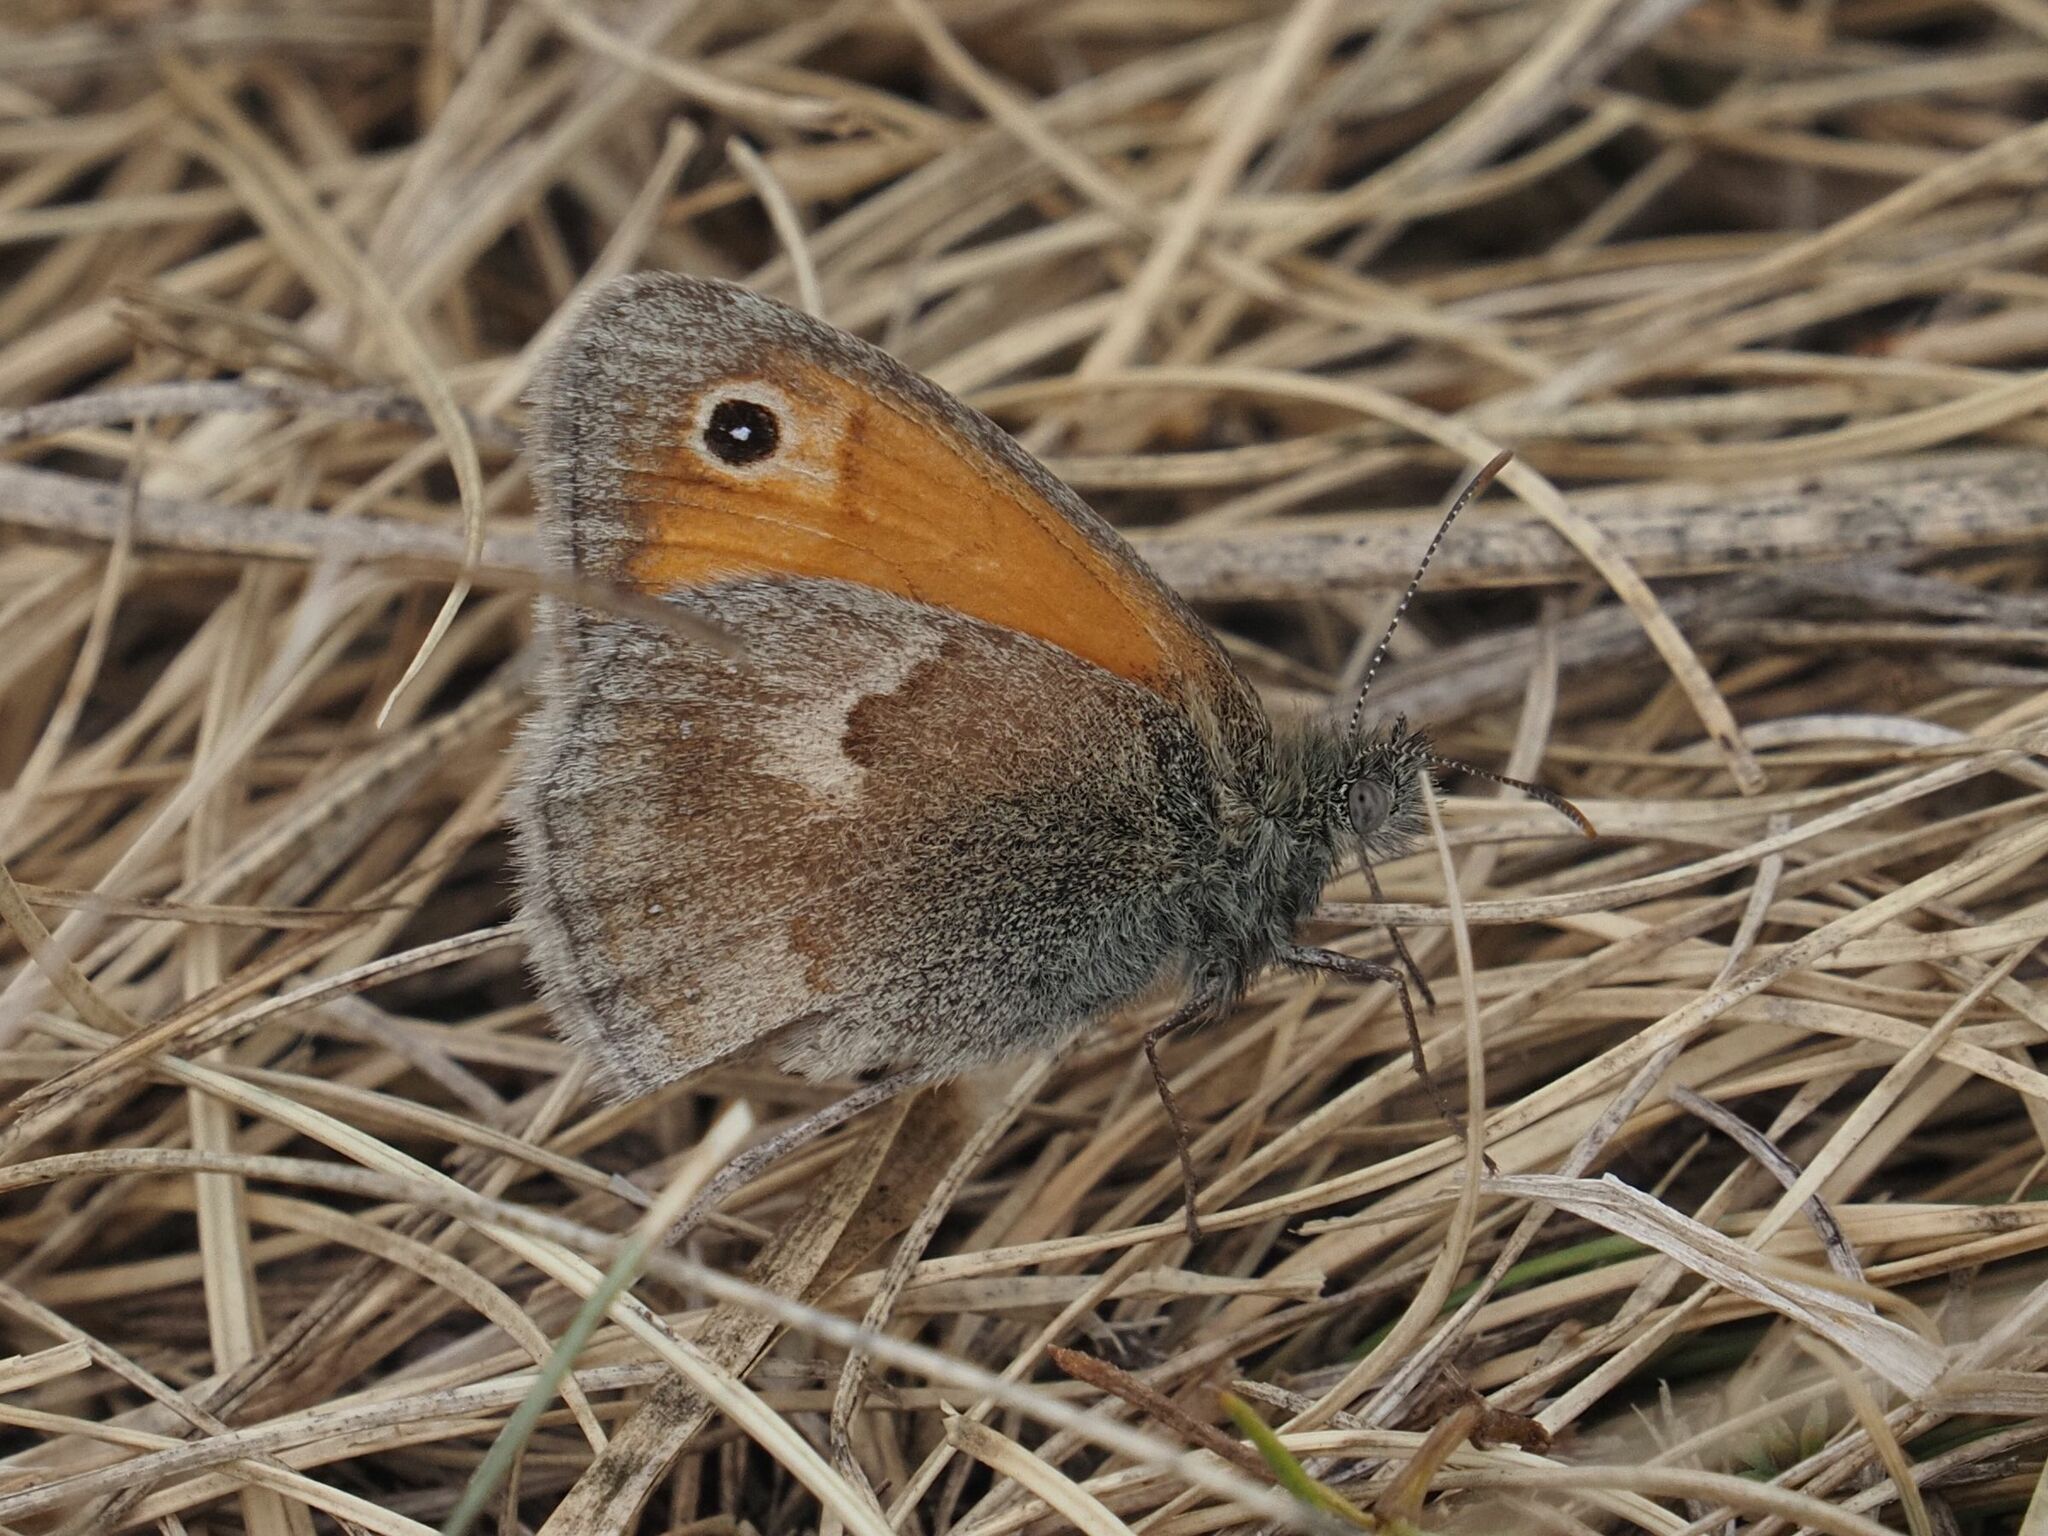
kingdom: Animalia
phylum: Arthropoda
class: Insecta
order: Lepidoptera
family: Nymphalidae
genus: Coenonympha
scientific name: Coenonympha pamphilus
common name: Small heath
